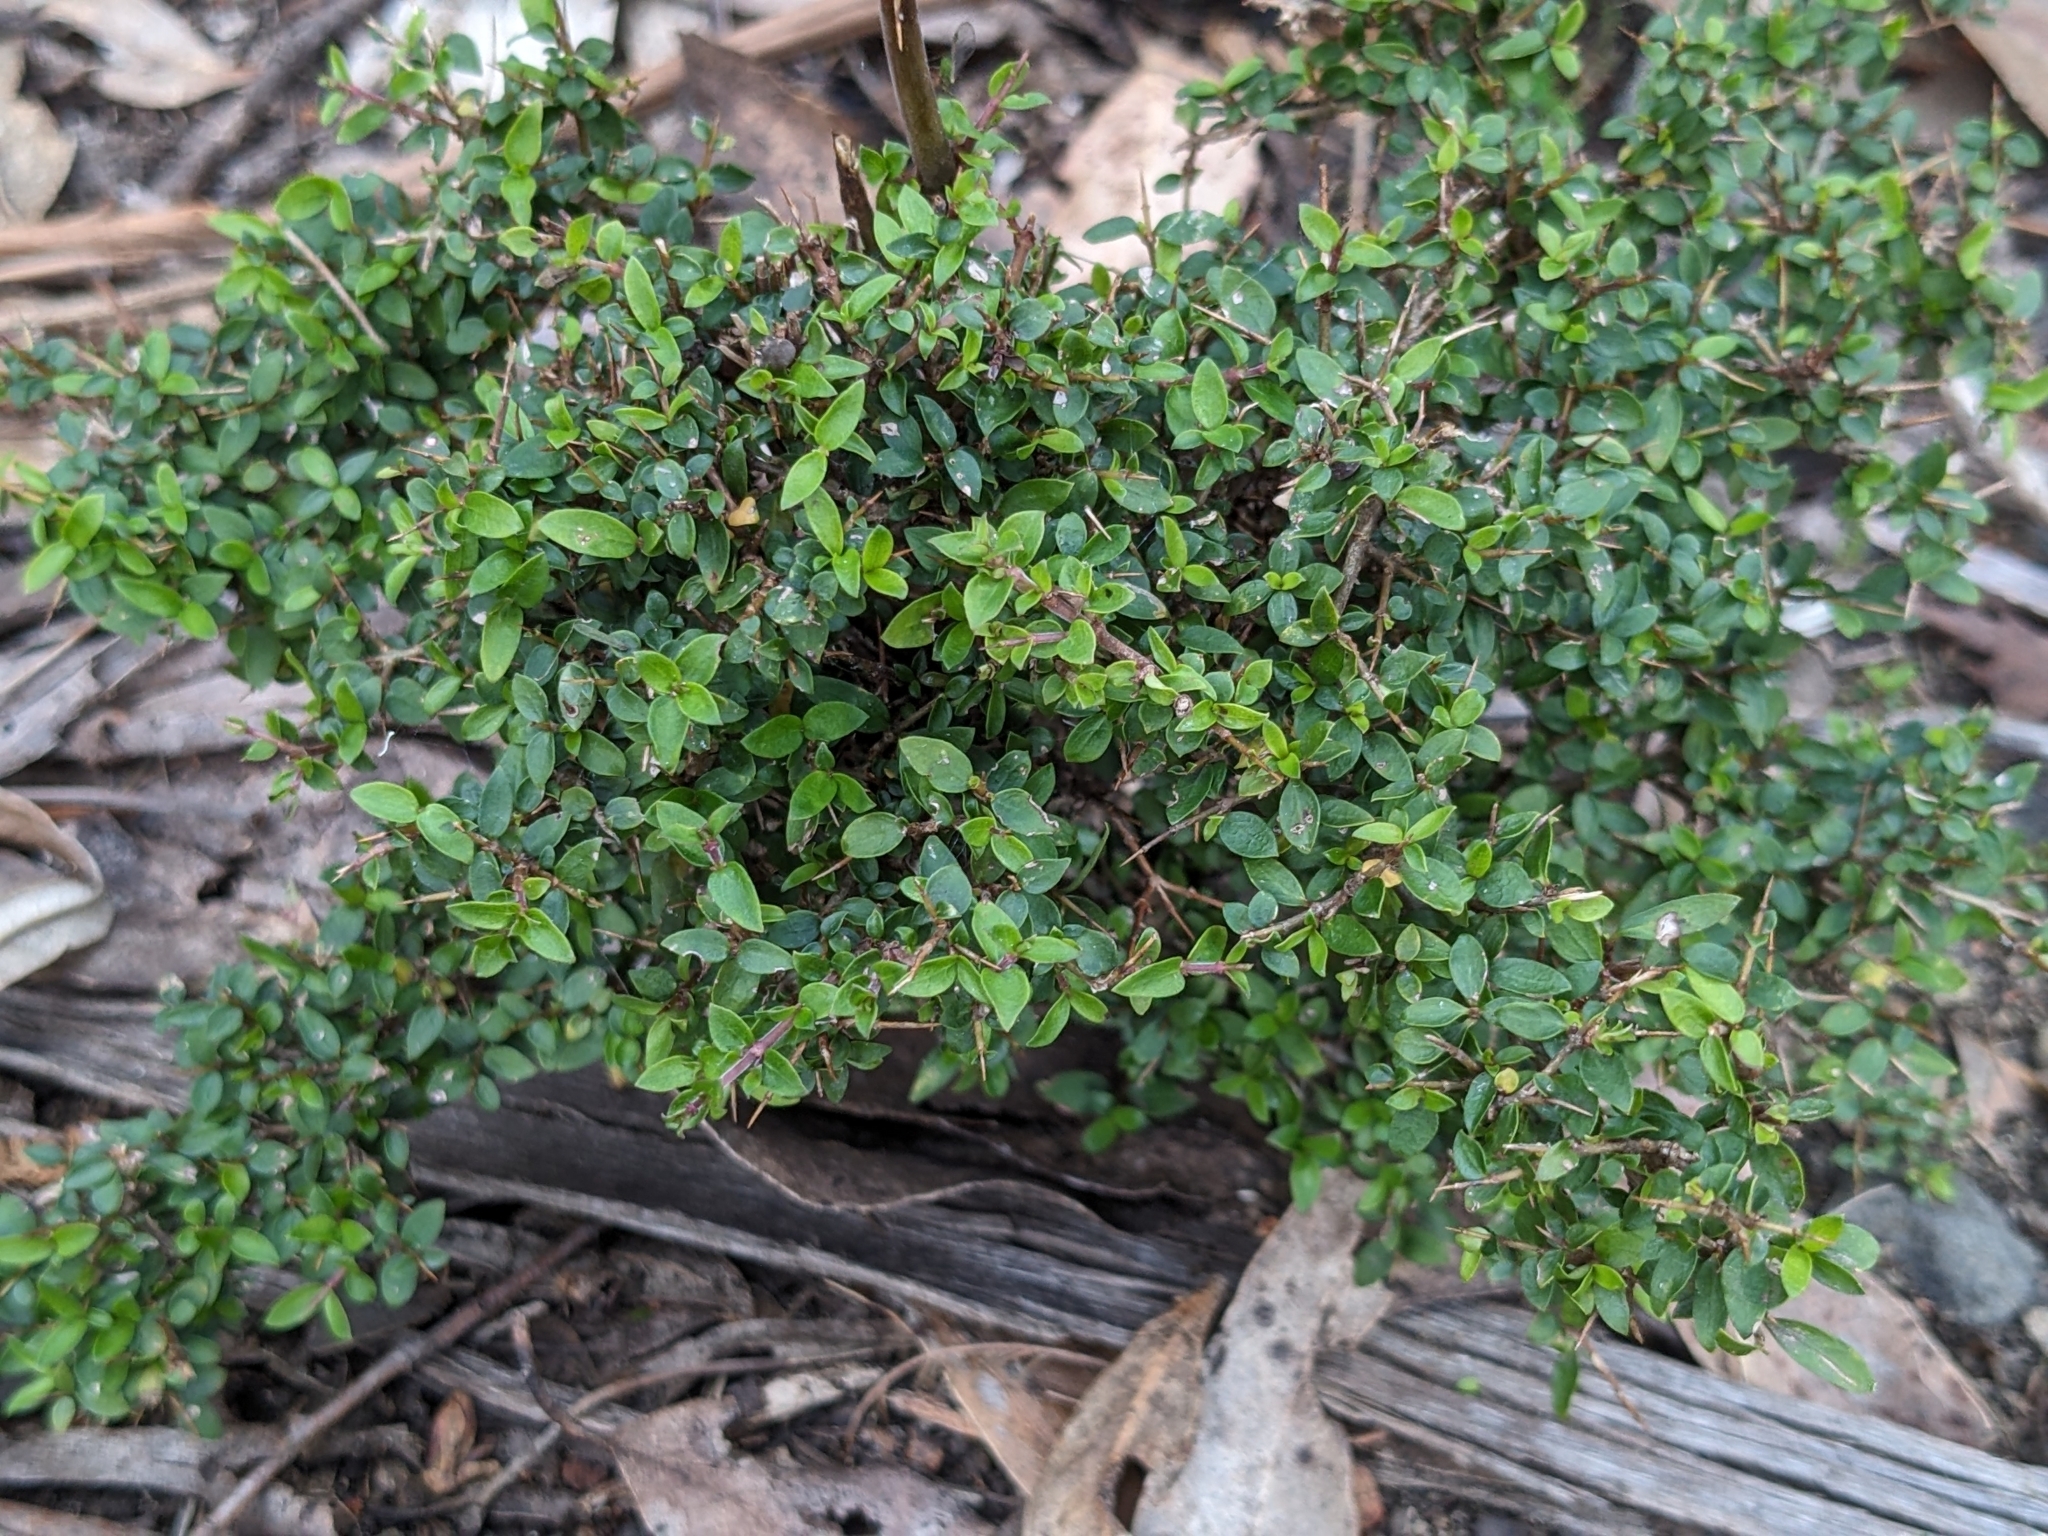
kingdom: Plantae
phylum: Tracheophyta
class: Magnoliopsida
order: Gentianales
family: Rubiaceae
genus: Coprosma
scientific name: Coprosma quadrifida
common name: Prickly currantbush
